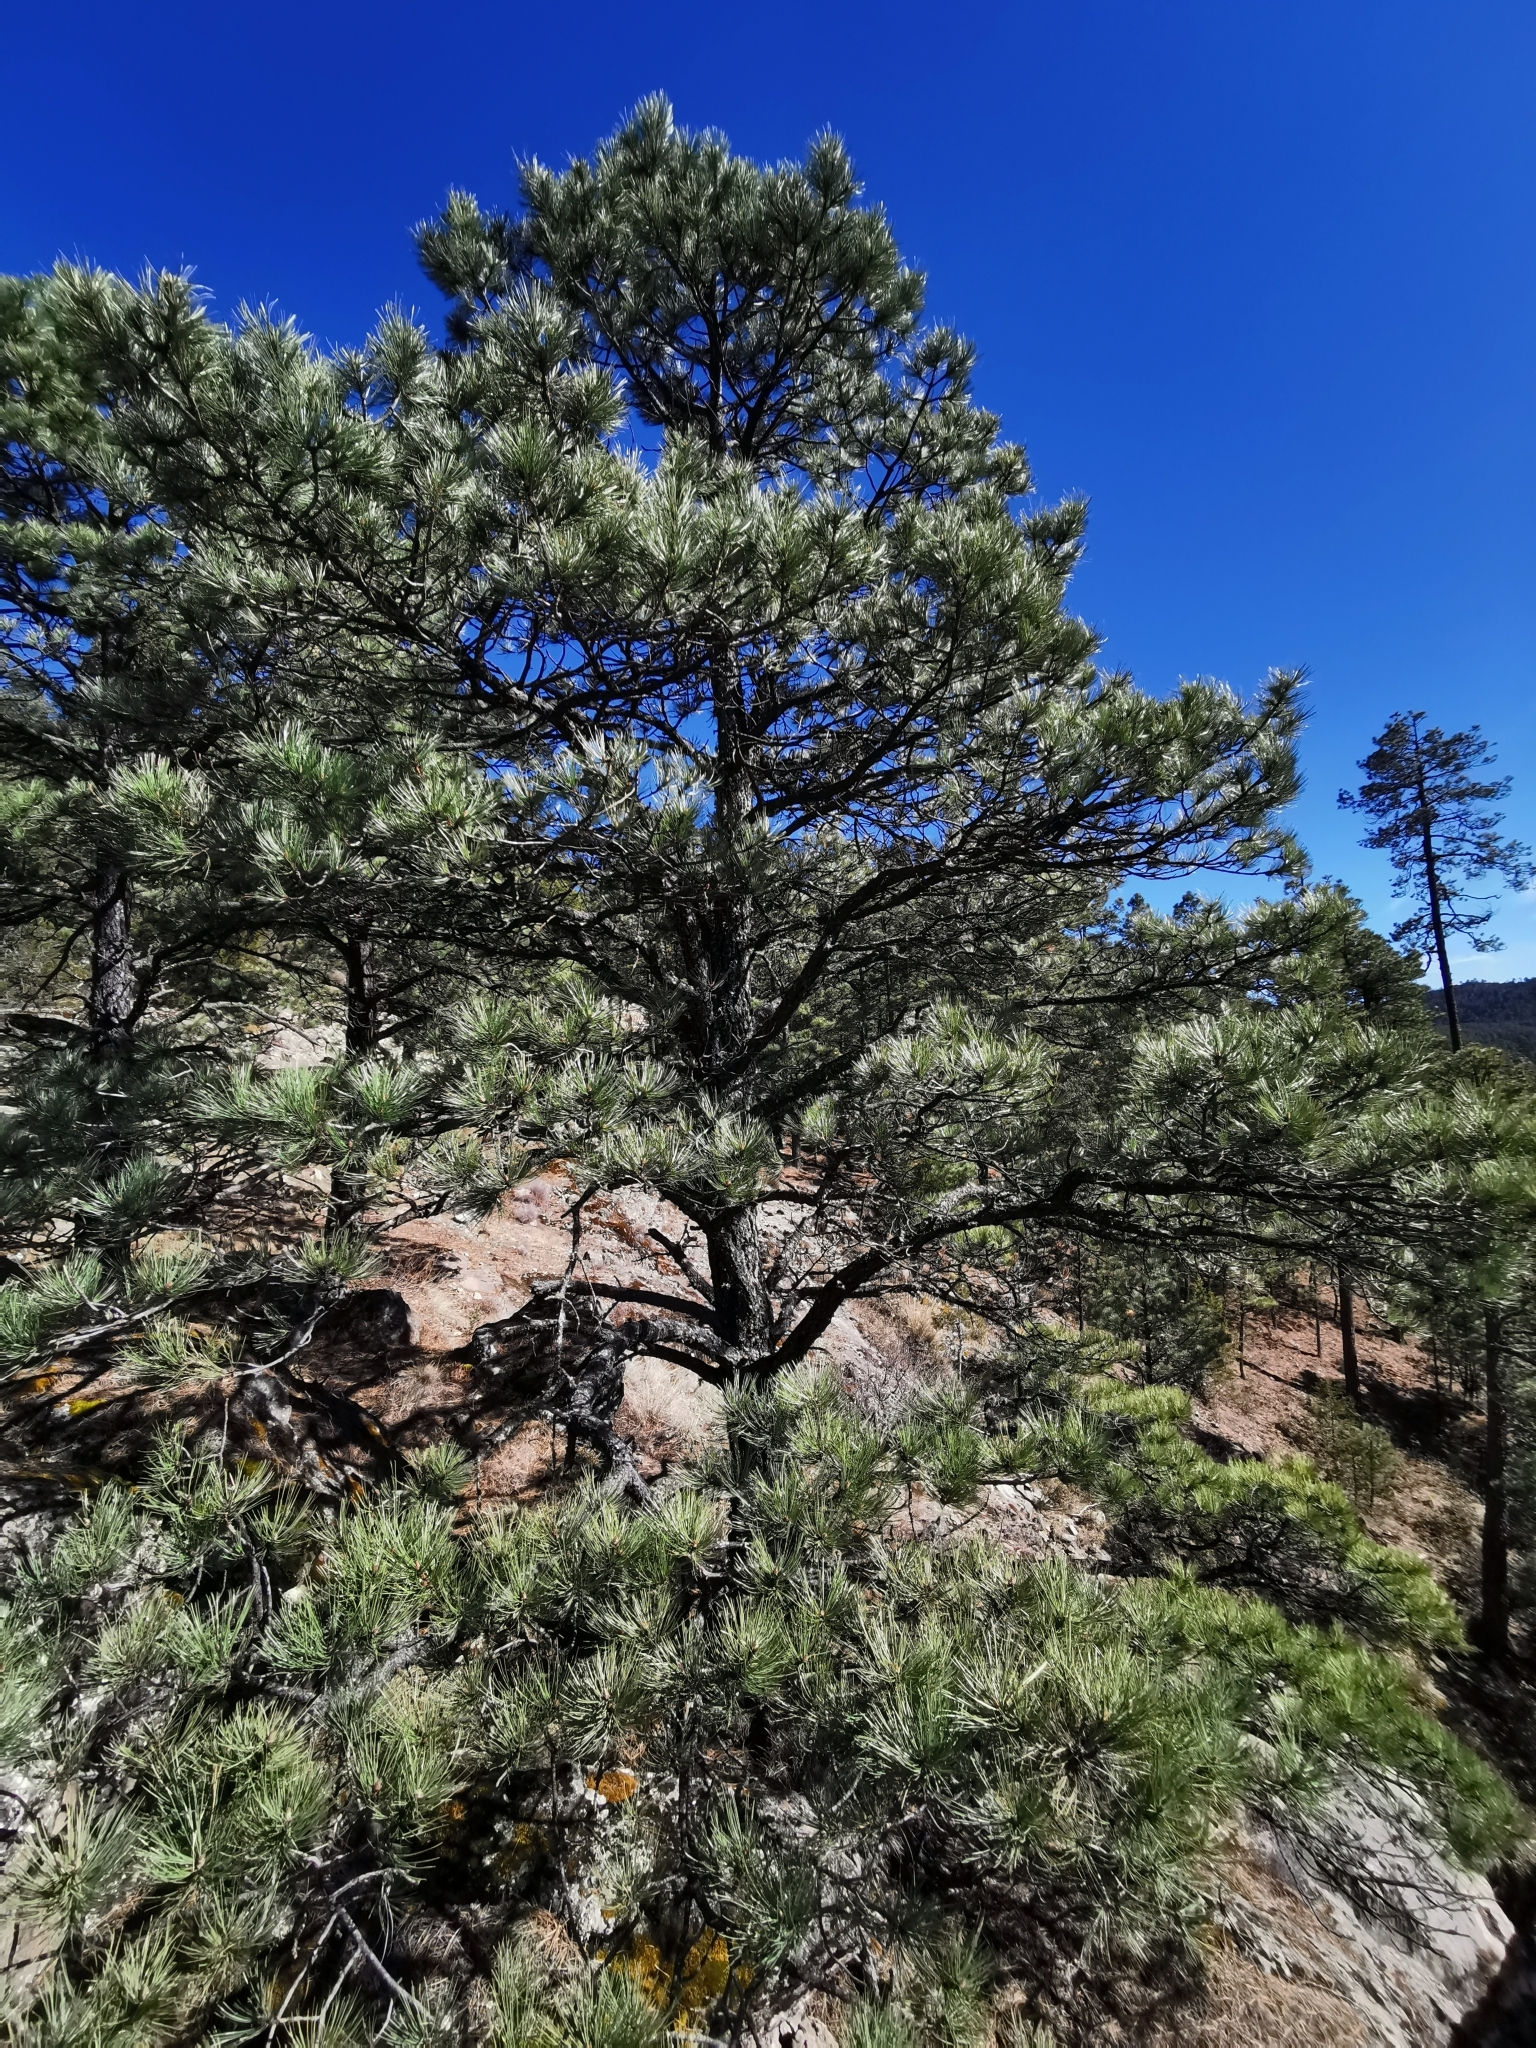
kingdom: Plantae
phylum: Tracheophyta
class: Pinopsida
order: Pinales
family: Pinaceae
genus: Pinus
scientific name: Pinus arizonica
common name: Arizona pine
